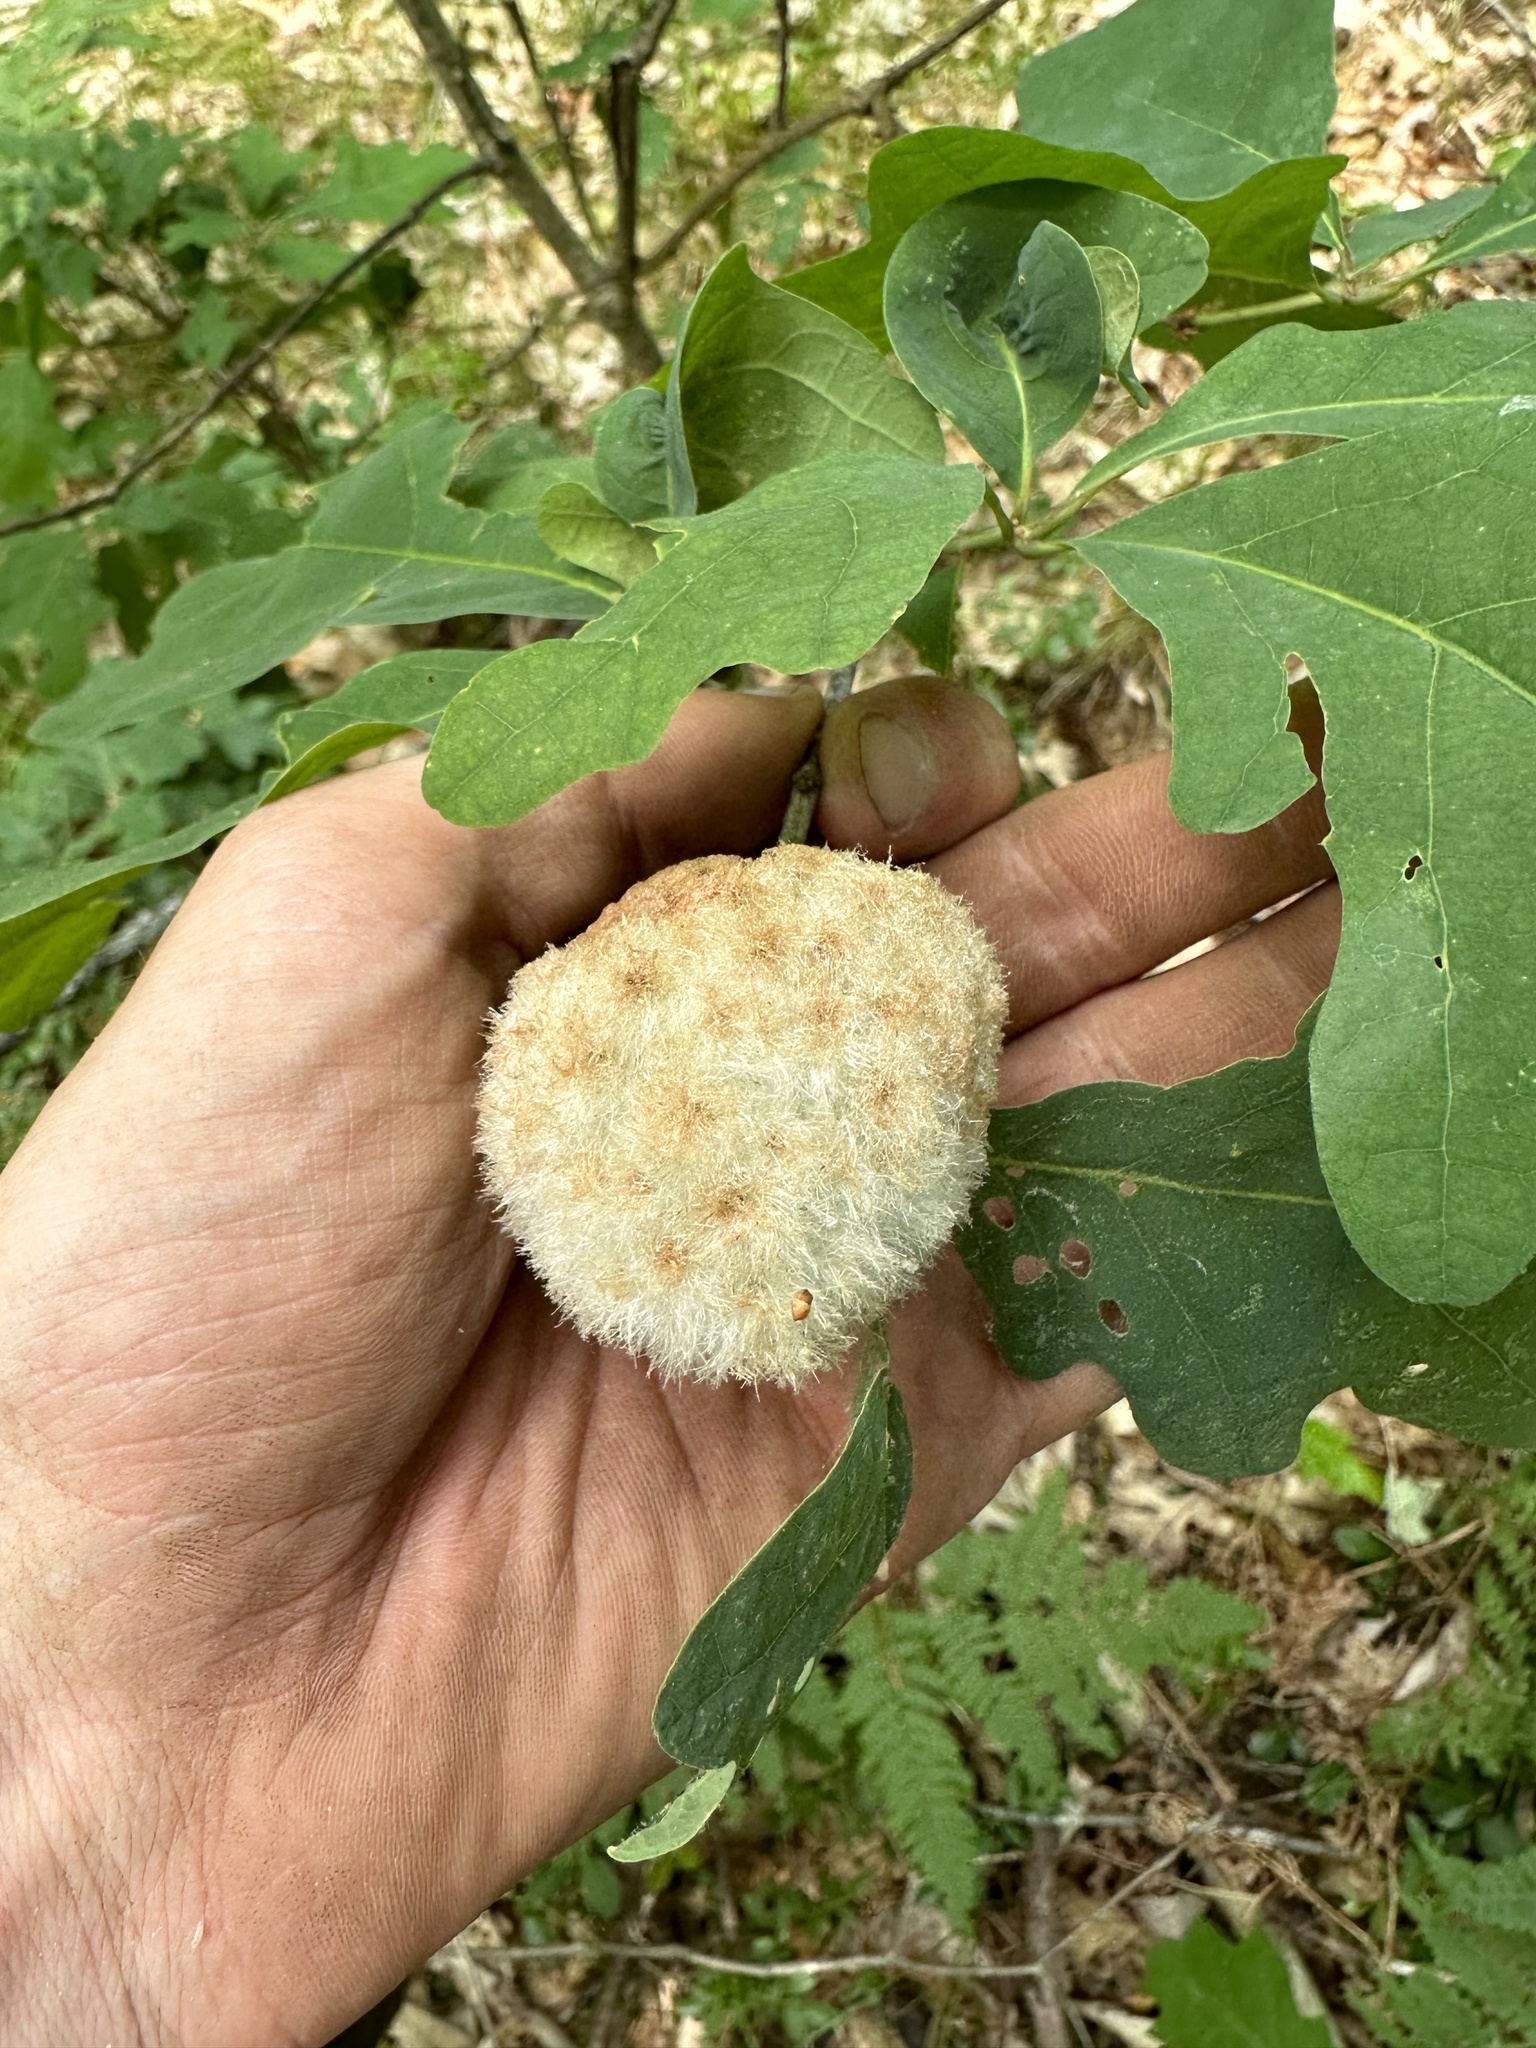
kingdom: Animalia
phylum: Arthropoda
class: Insecta
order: Hymenoptera
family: Cynipidae
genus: Callirhytis
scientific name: Callirhytis
